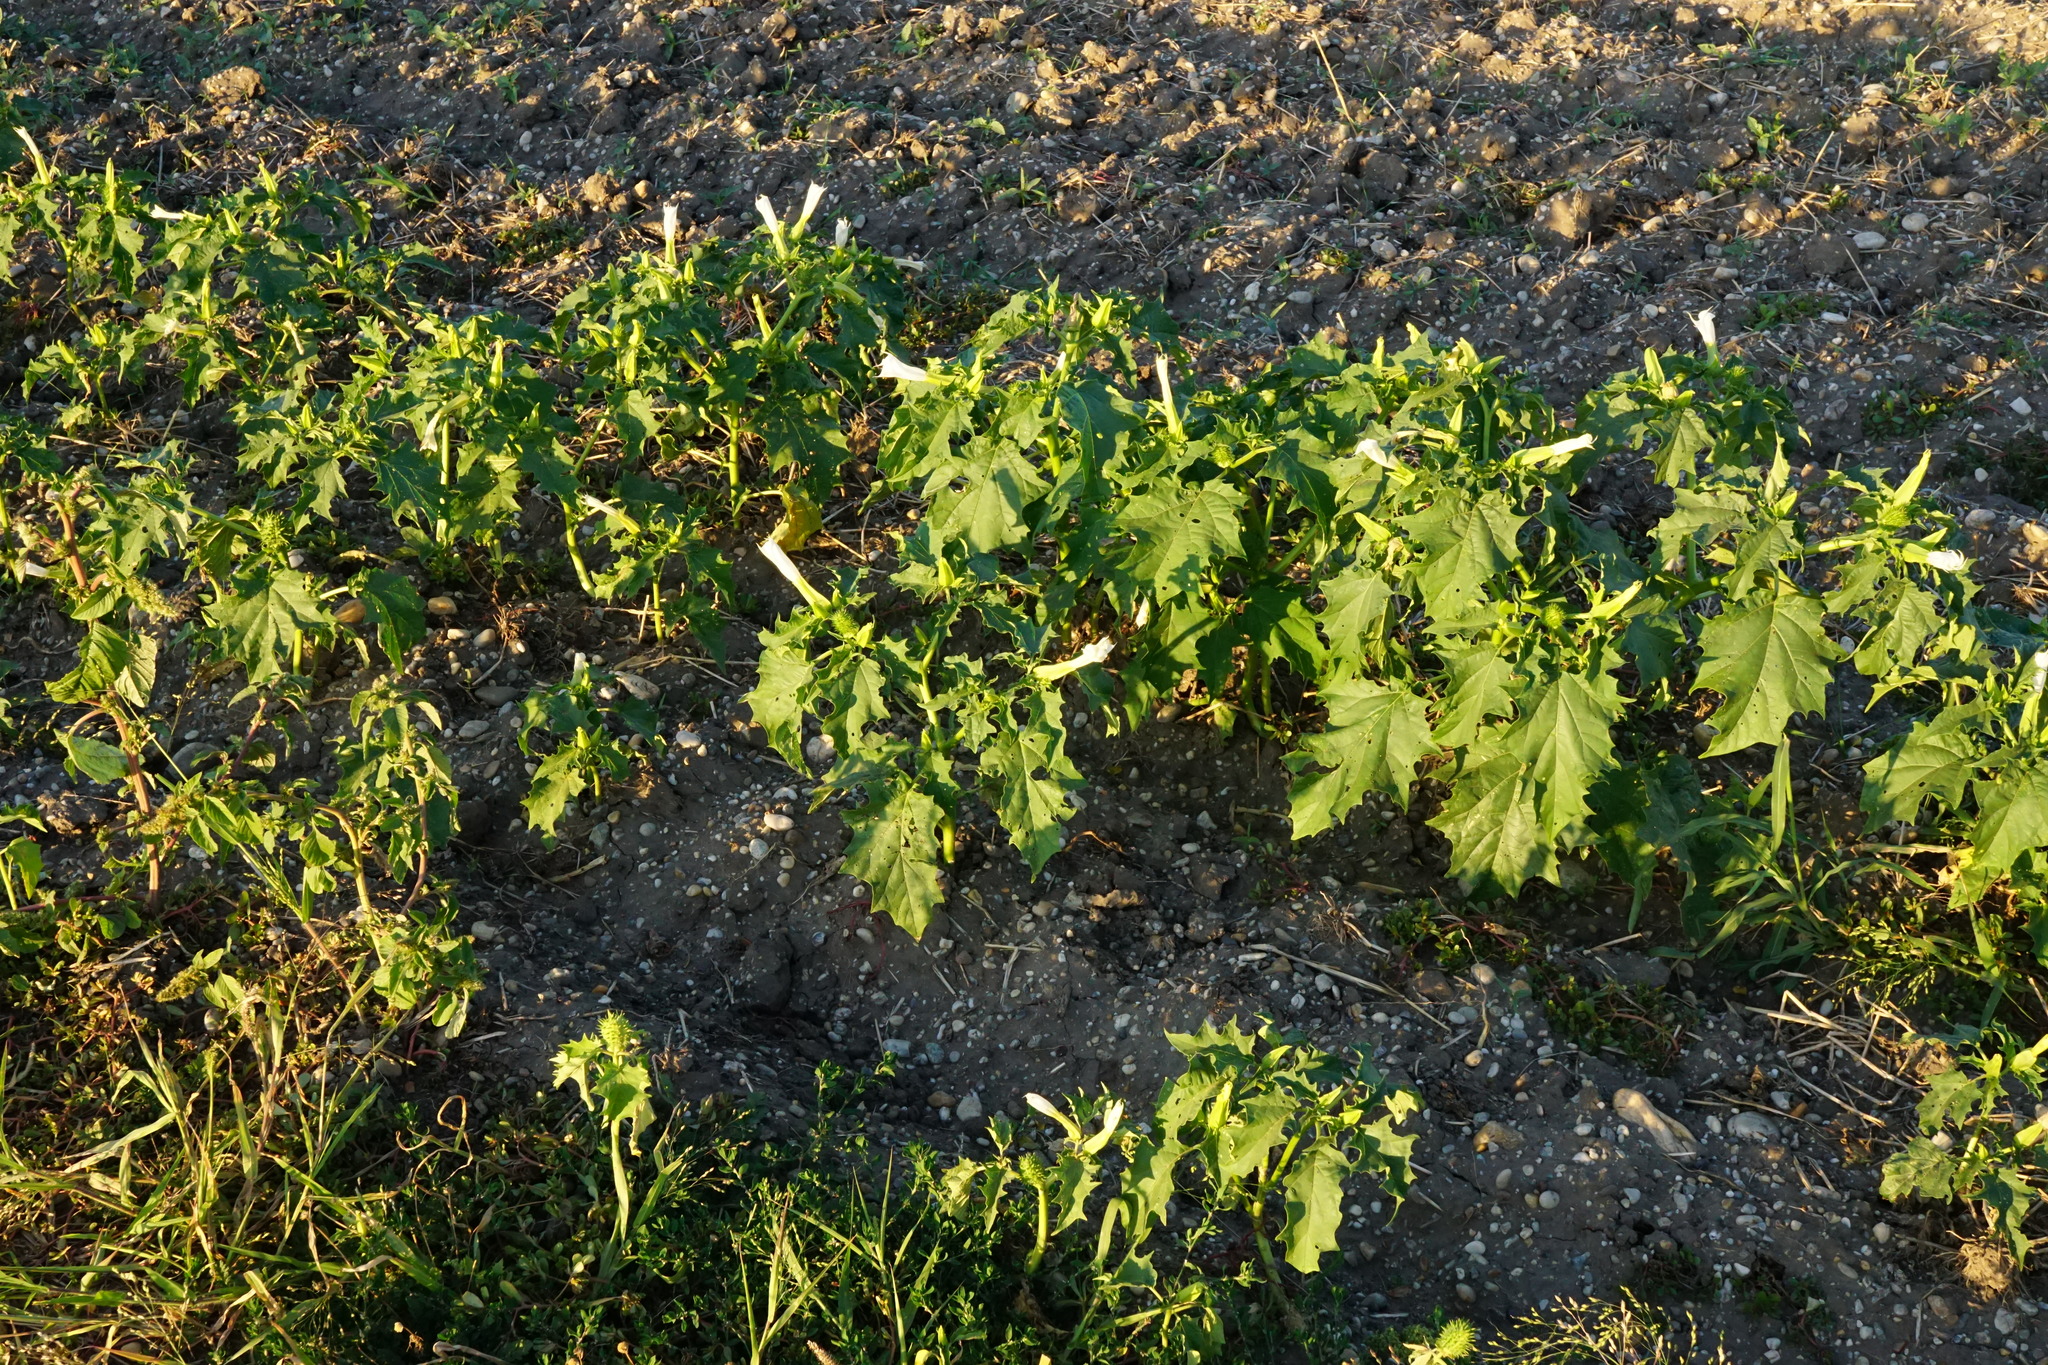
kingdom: Plantae
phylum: Tracheophyta
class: Magnoliopsida
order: Solanales
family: Solanaceae
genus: Datura
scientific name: Datura stramonium
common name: Thorn-apple
